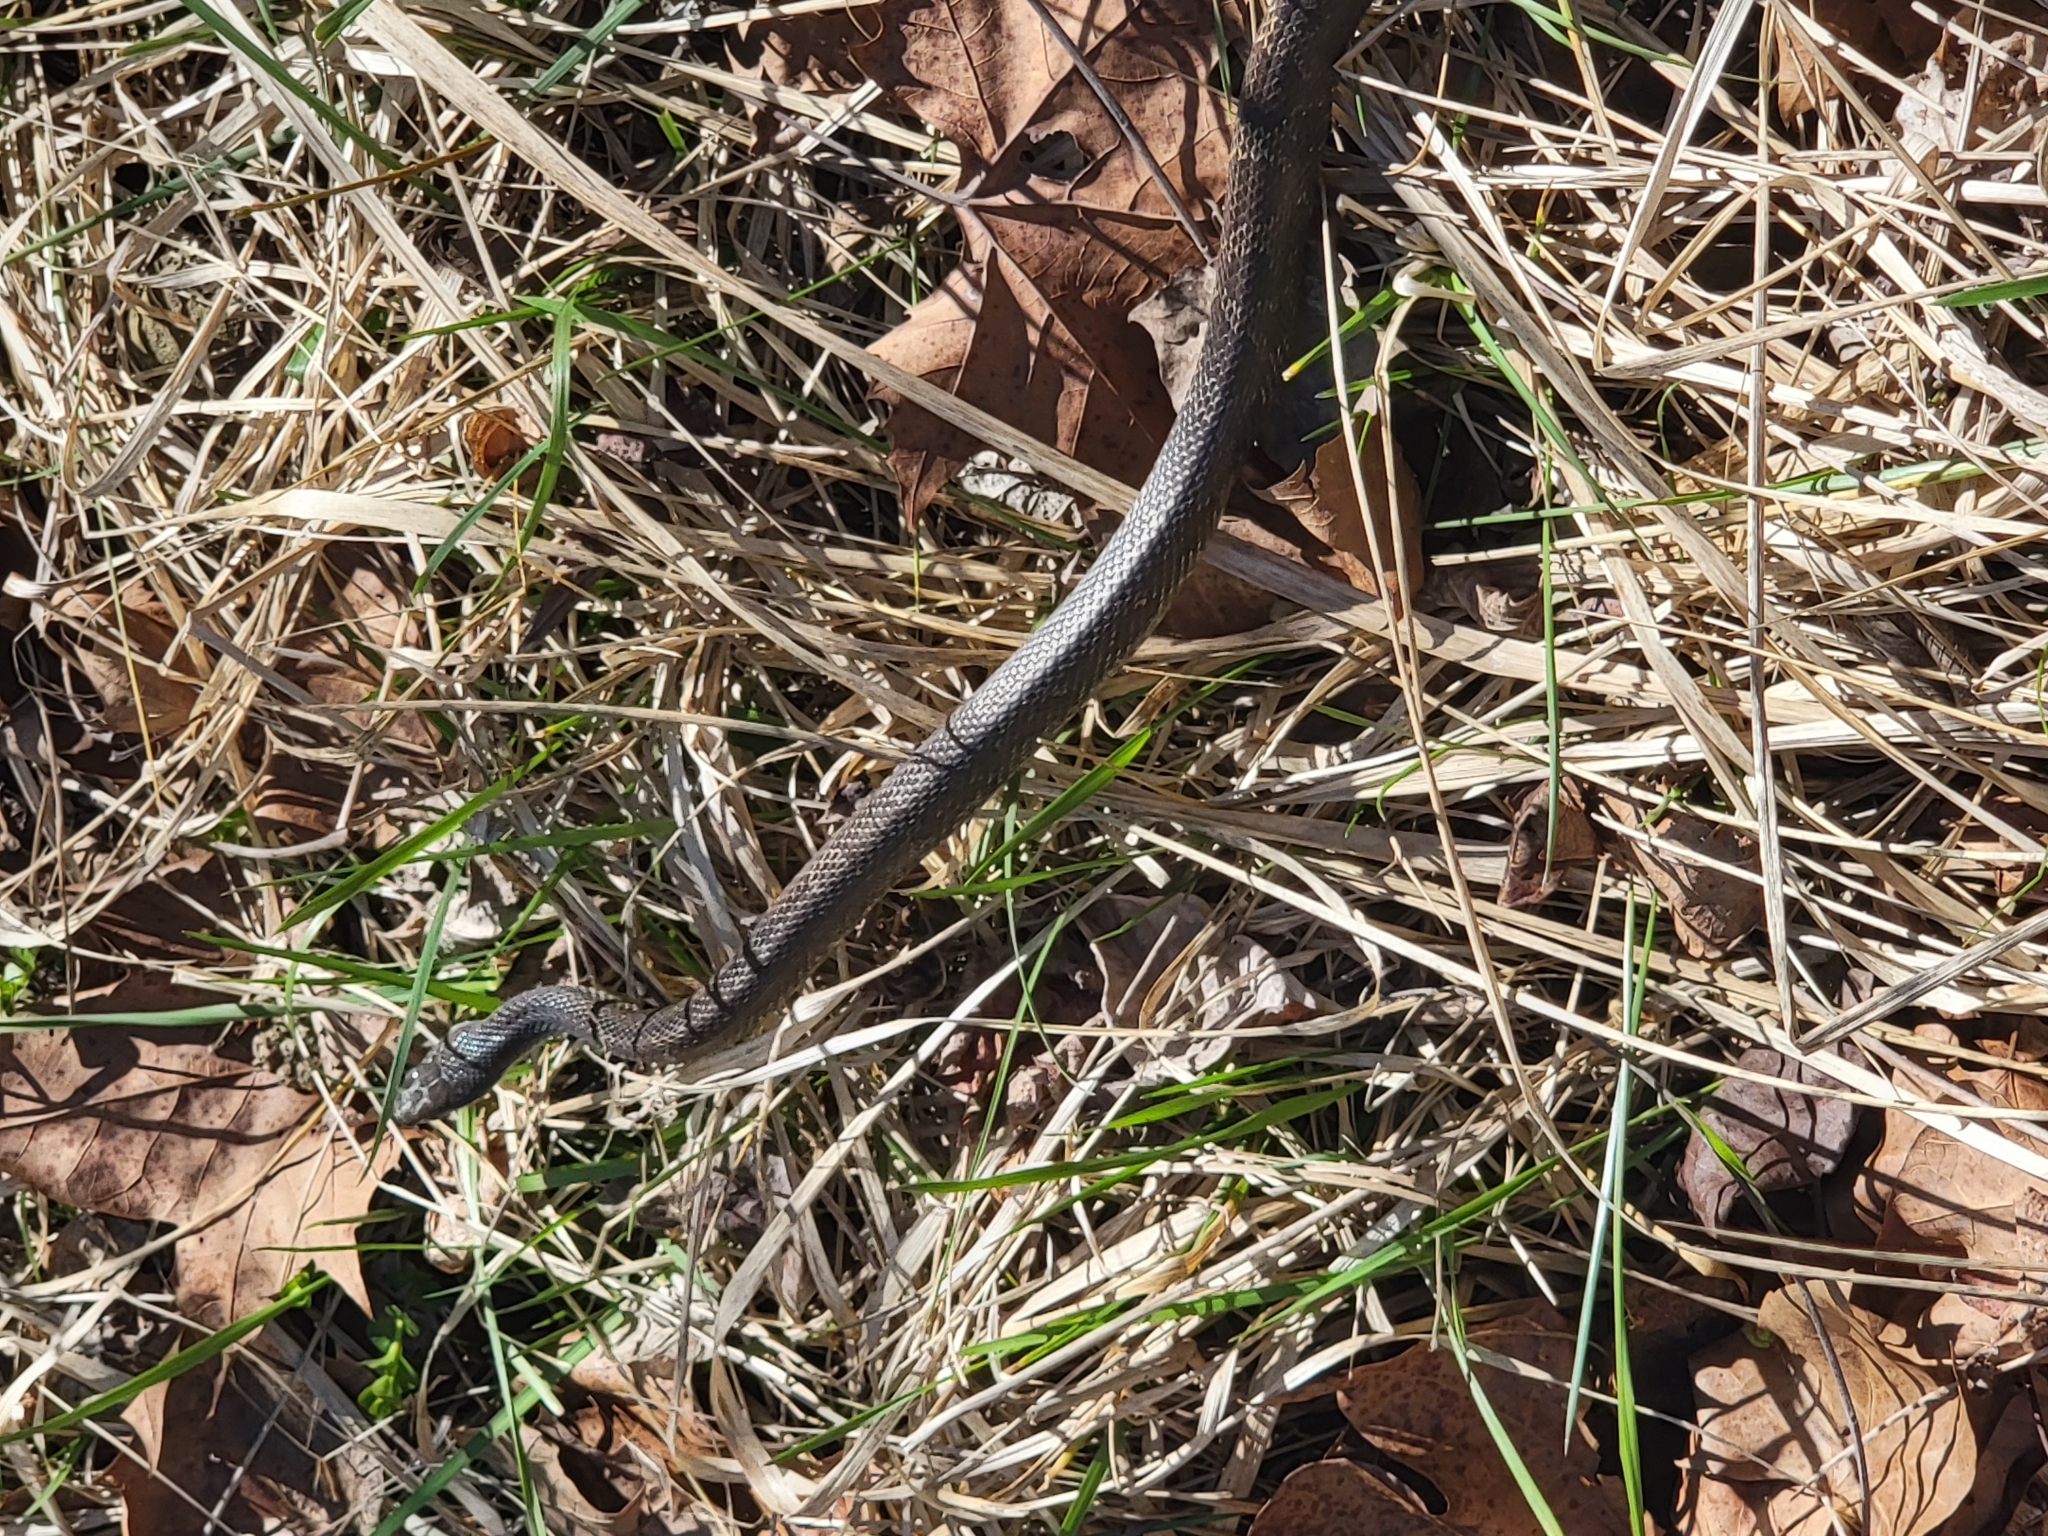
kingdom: Animalia
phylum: Chordata
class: Squamata
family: Colubridae
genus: Pantherophis
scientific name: Pantherophis spiloides
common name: Gray rat snake
